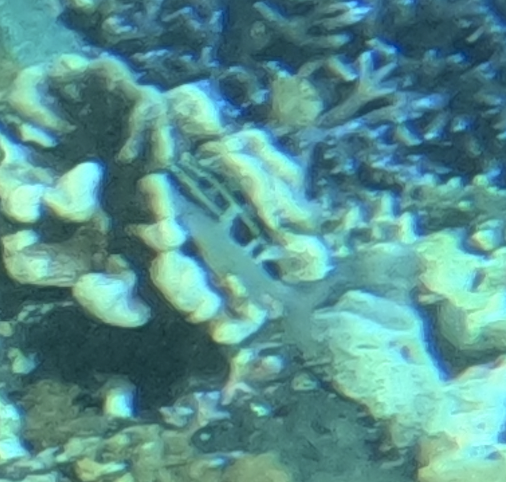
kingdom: Animalia
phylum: Chordata
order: Perciformes
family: Nemipteridae
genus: Scolopsis
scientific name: Scolopsis lineata
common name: Striped monocle bream
